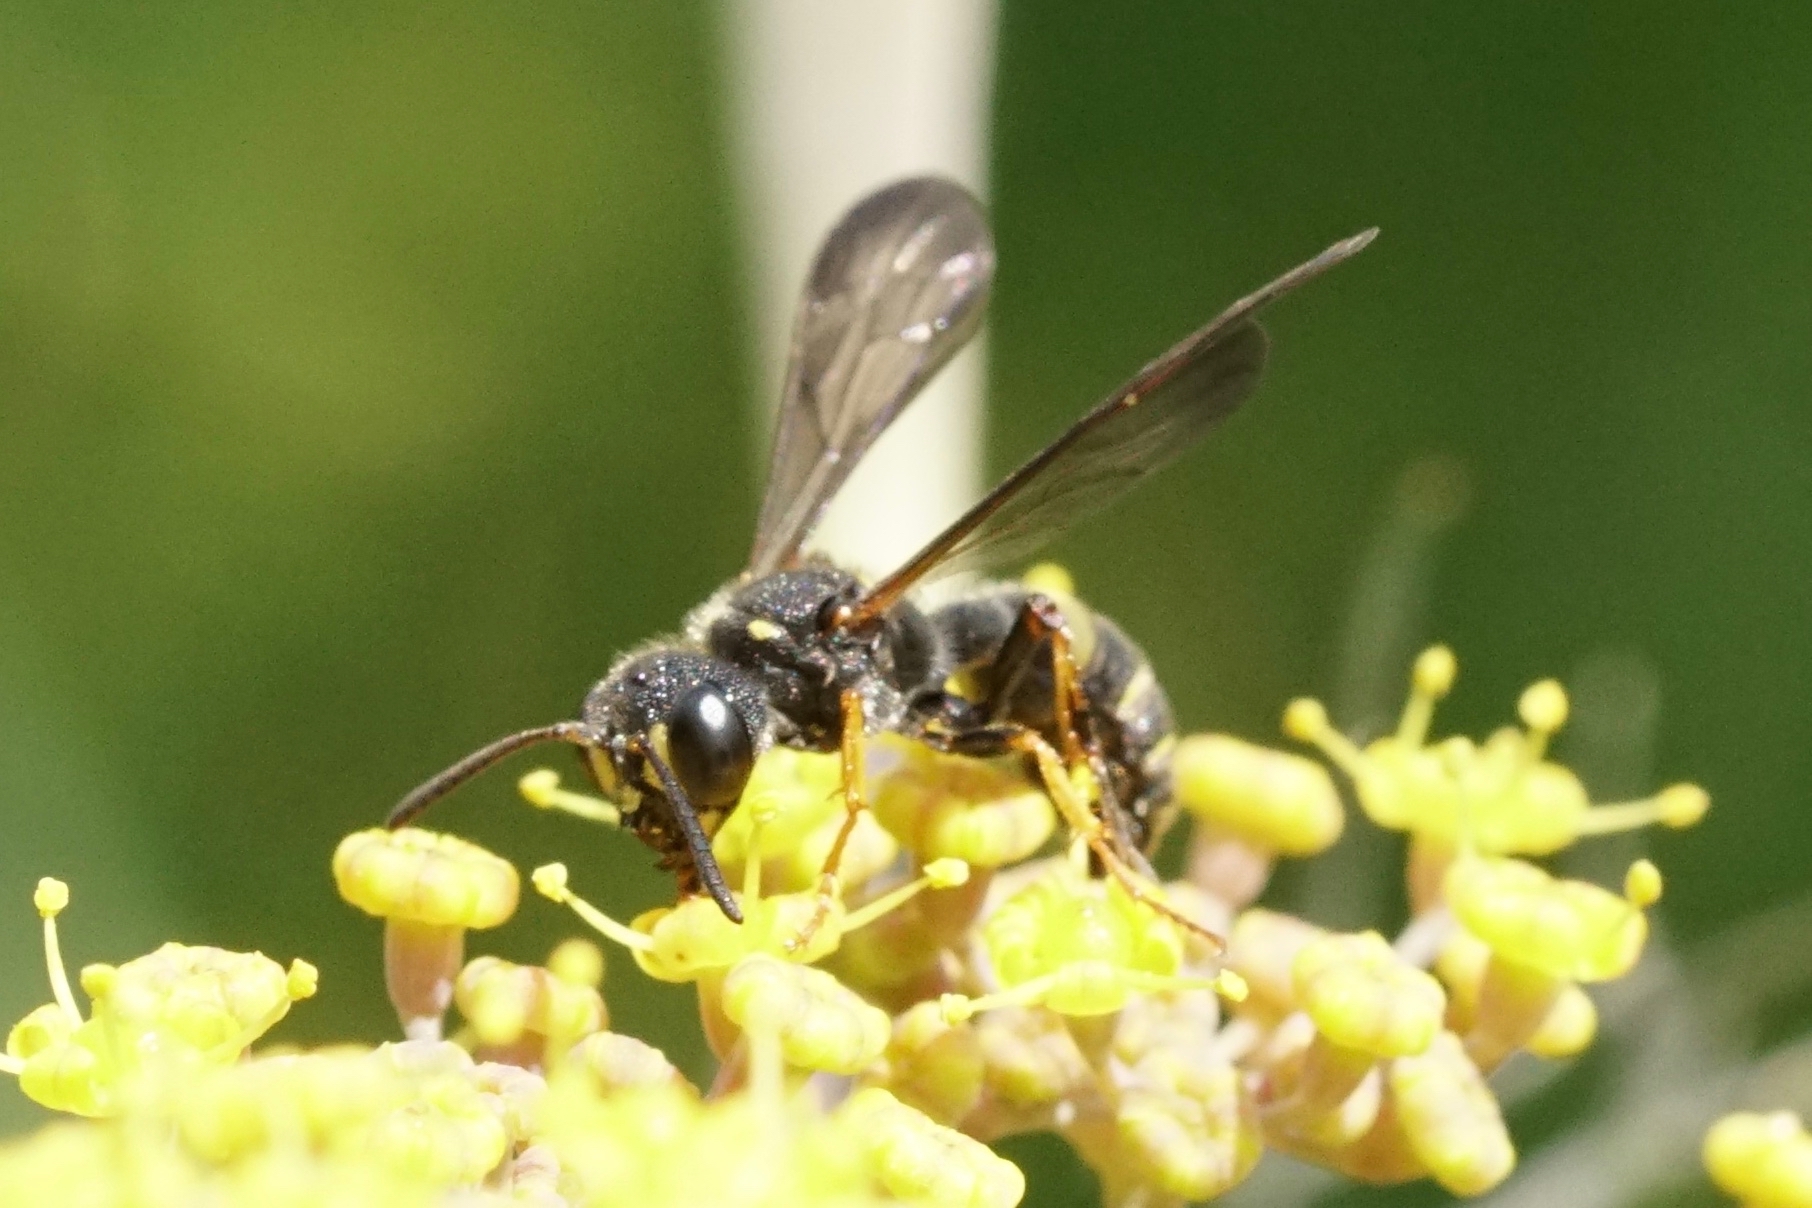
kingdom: Animalia
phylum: Arthropoda
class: Insecta
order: Hymenoptera
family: Crabronidae
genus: Cerceris
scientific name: Cerceris
